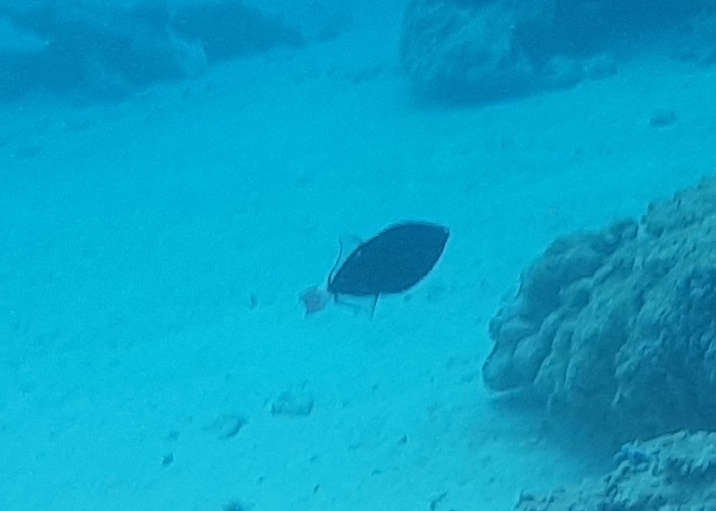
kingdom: Animalia
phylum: Chordata
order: Tetraodontiformes
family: Balistidae
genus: Melichthys
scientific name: Melichthys vidua
